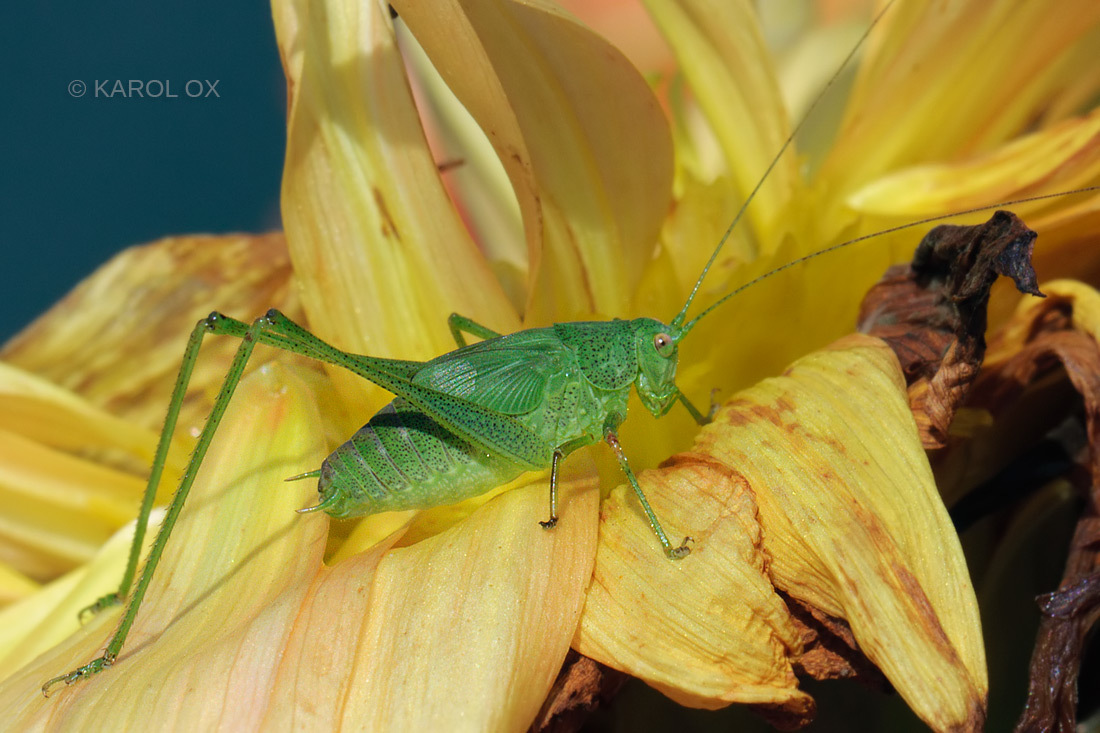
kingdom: Animalia
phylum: Arthropoda
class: Insecta
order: Orthoptera
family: Tettigoniidae
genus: Phaneroptera
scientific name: Phaneroptera nana
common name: Southern sickle bush-cricket
